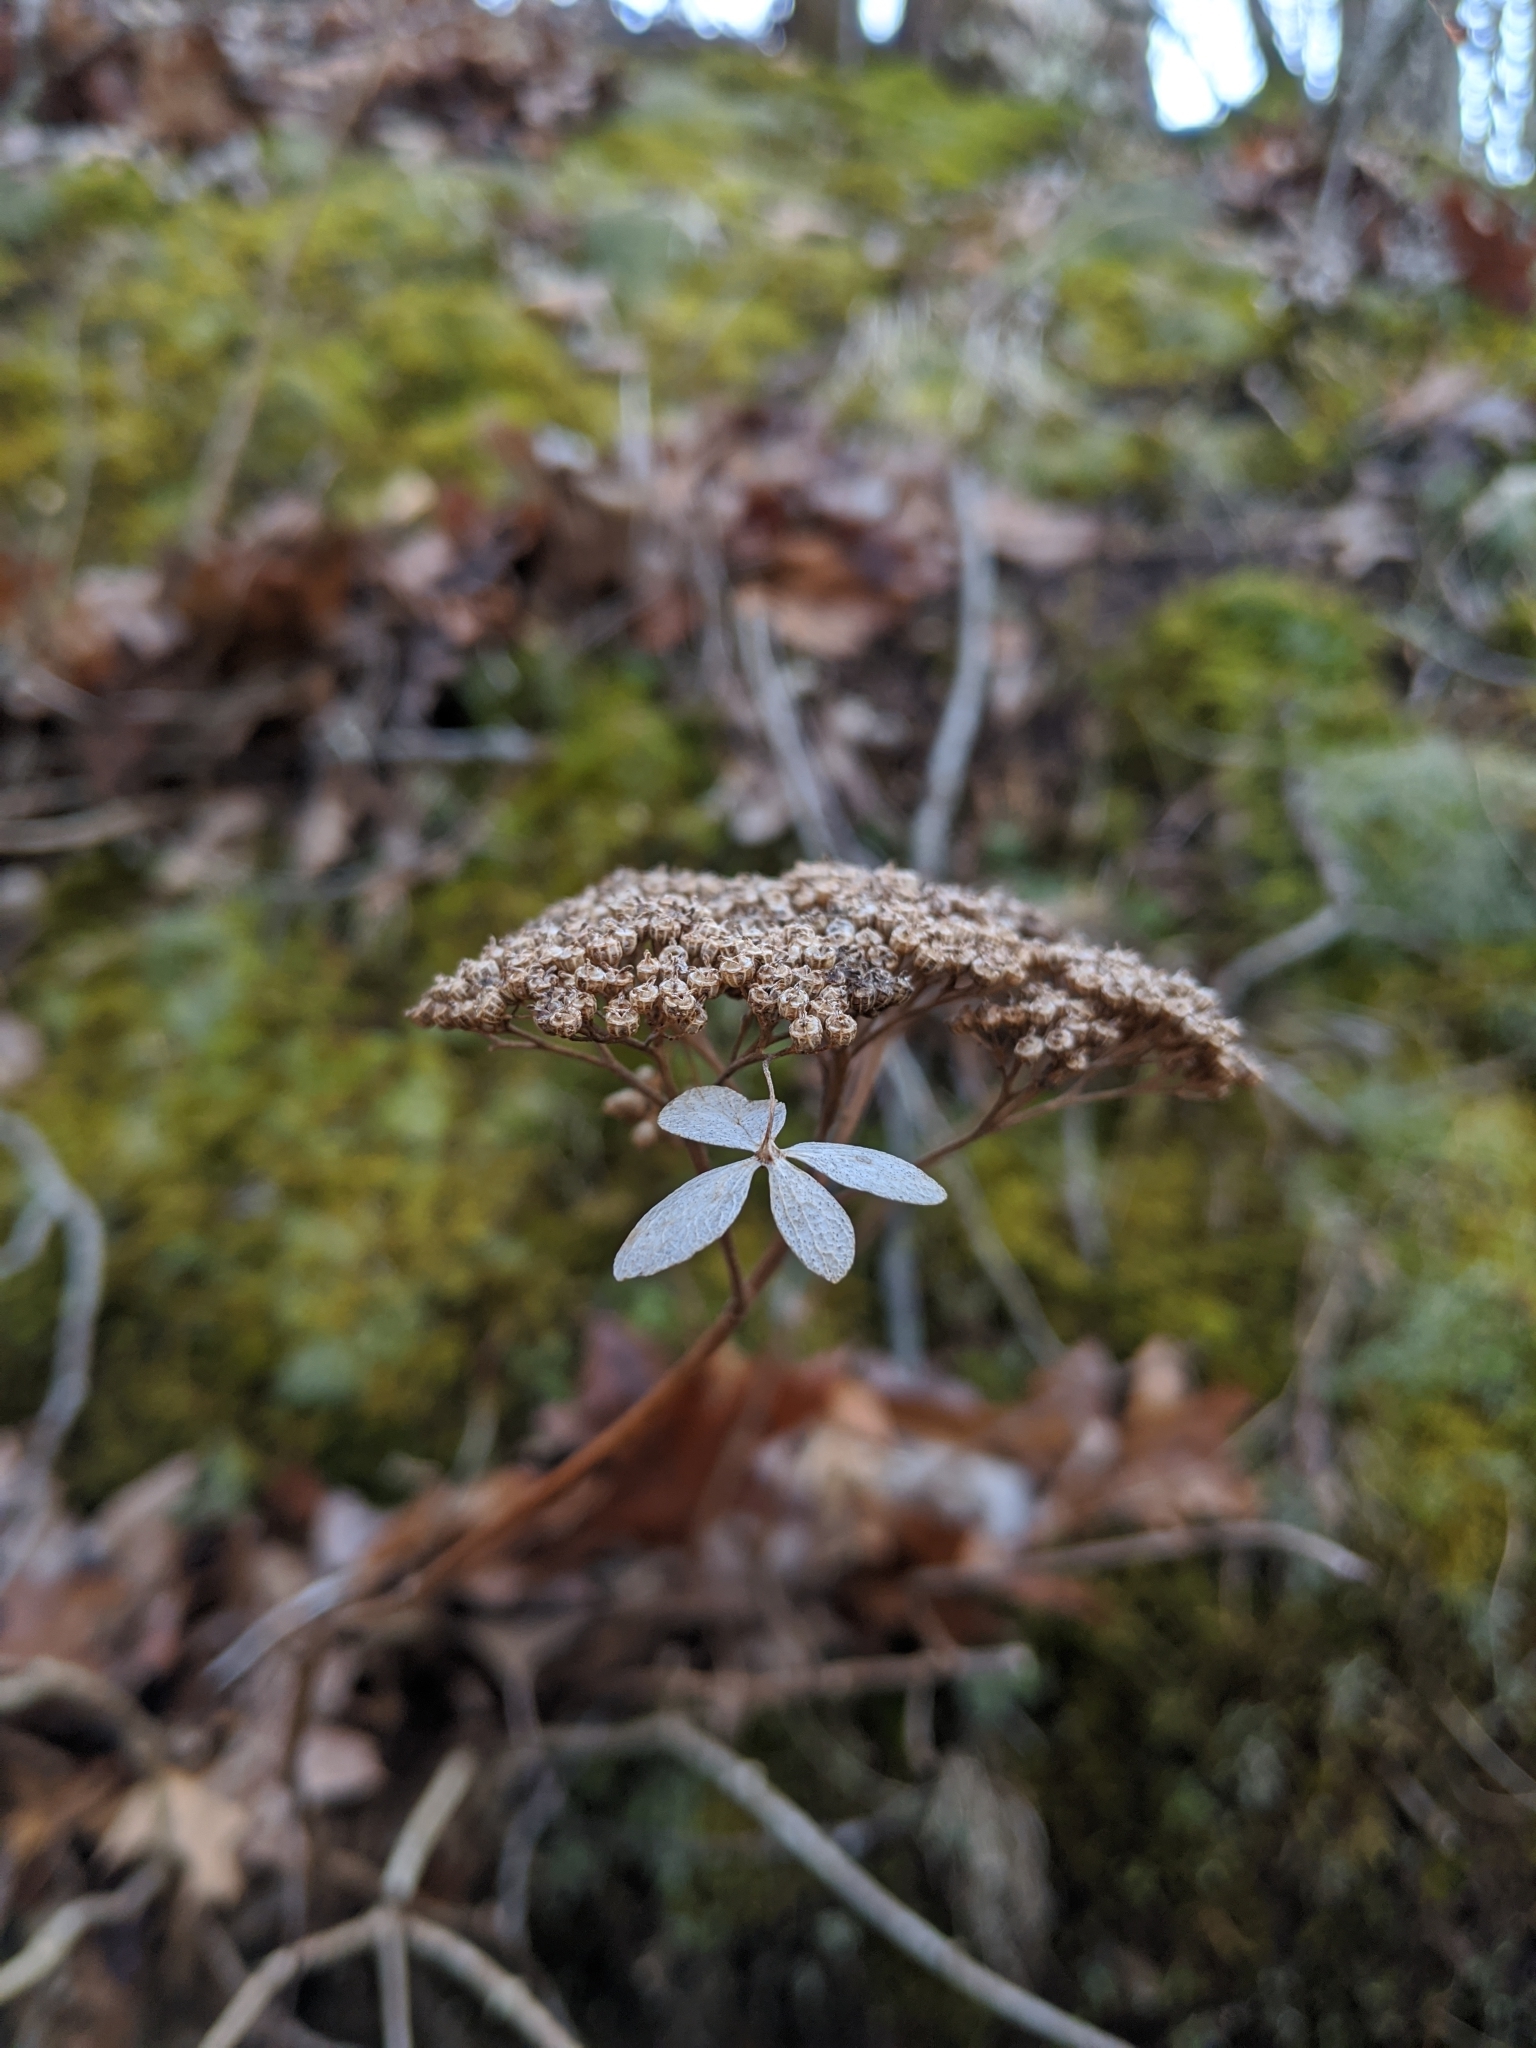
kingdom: Plantae
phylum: Tracheophyta
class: Magnoliopsida
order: Cornales
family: Hydrangeaceae
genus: Hydrangea
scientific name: Hydrangea arborescens
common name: Sevenbark
